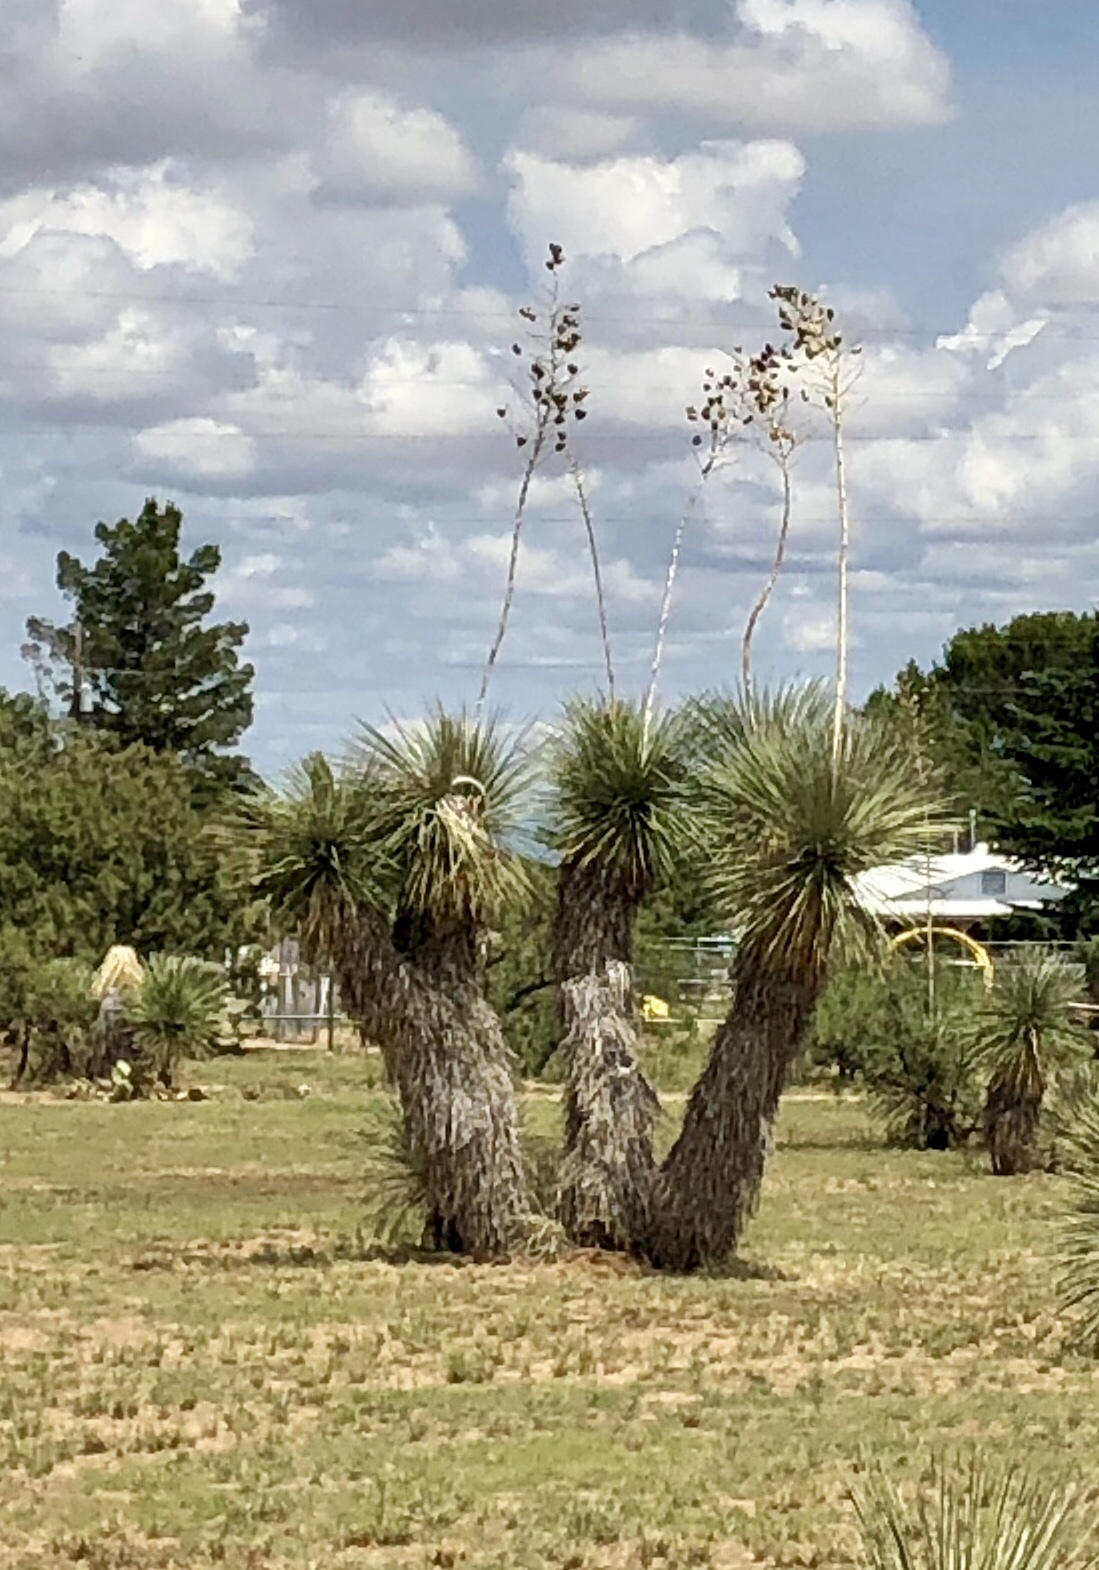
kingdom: Plantae
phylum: Tracheophyta
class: Liliopsida
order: Asparagales
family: Asparagaceae
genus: Yucca
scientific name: Yucca elata
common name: Palmella
